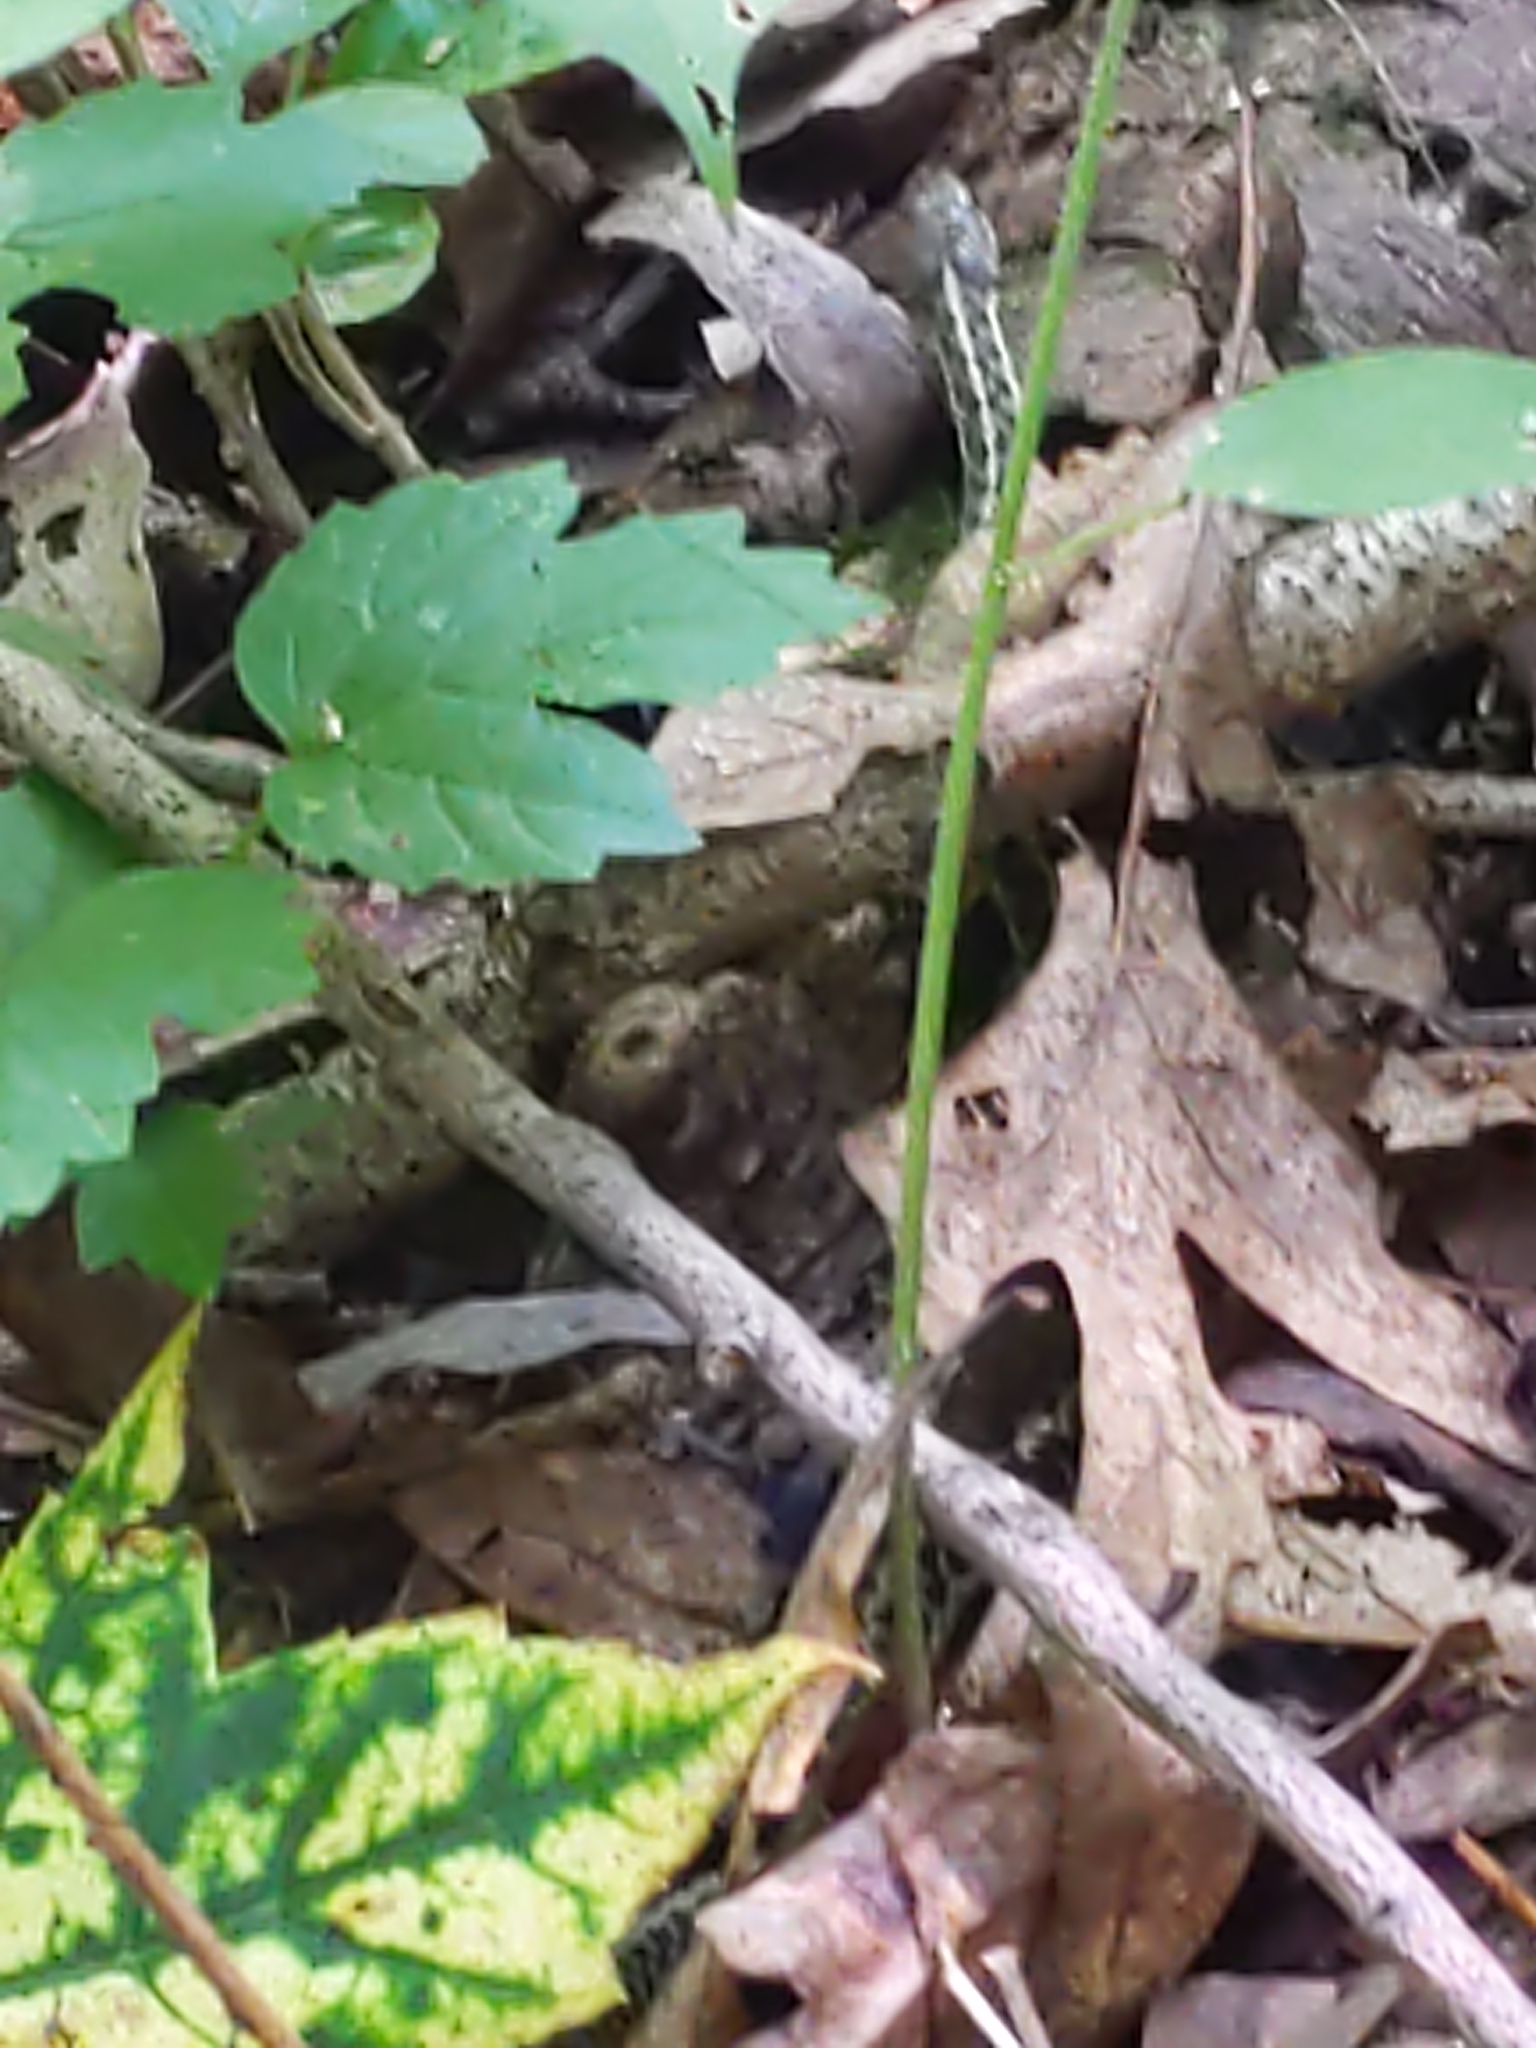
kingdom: Animalia
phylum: Chordata
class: Squamata
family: Colubridae
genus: Thamnophis
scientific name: Thamnophis sirtalis
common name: Common garter snake
